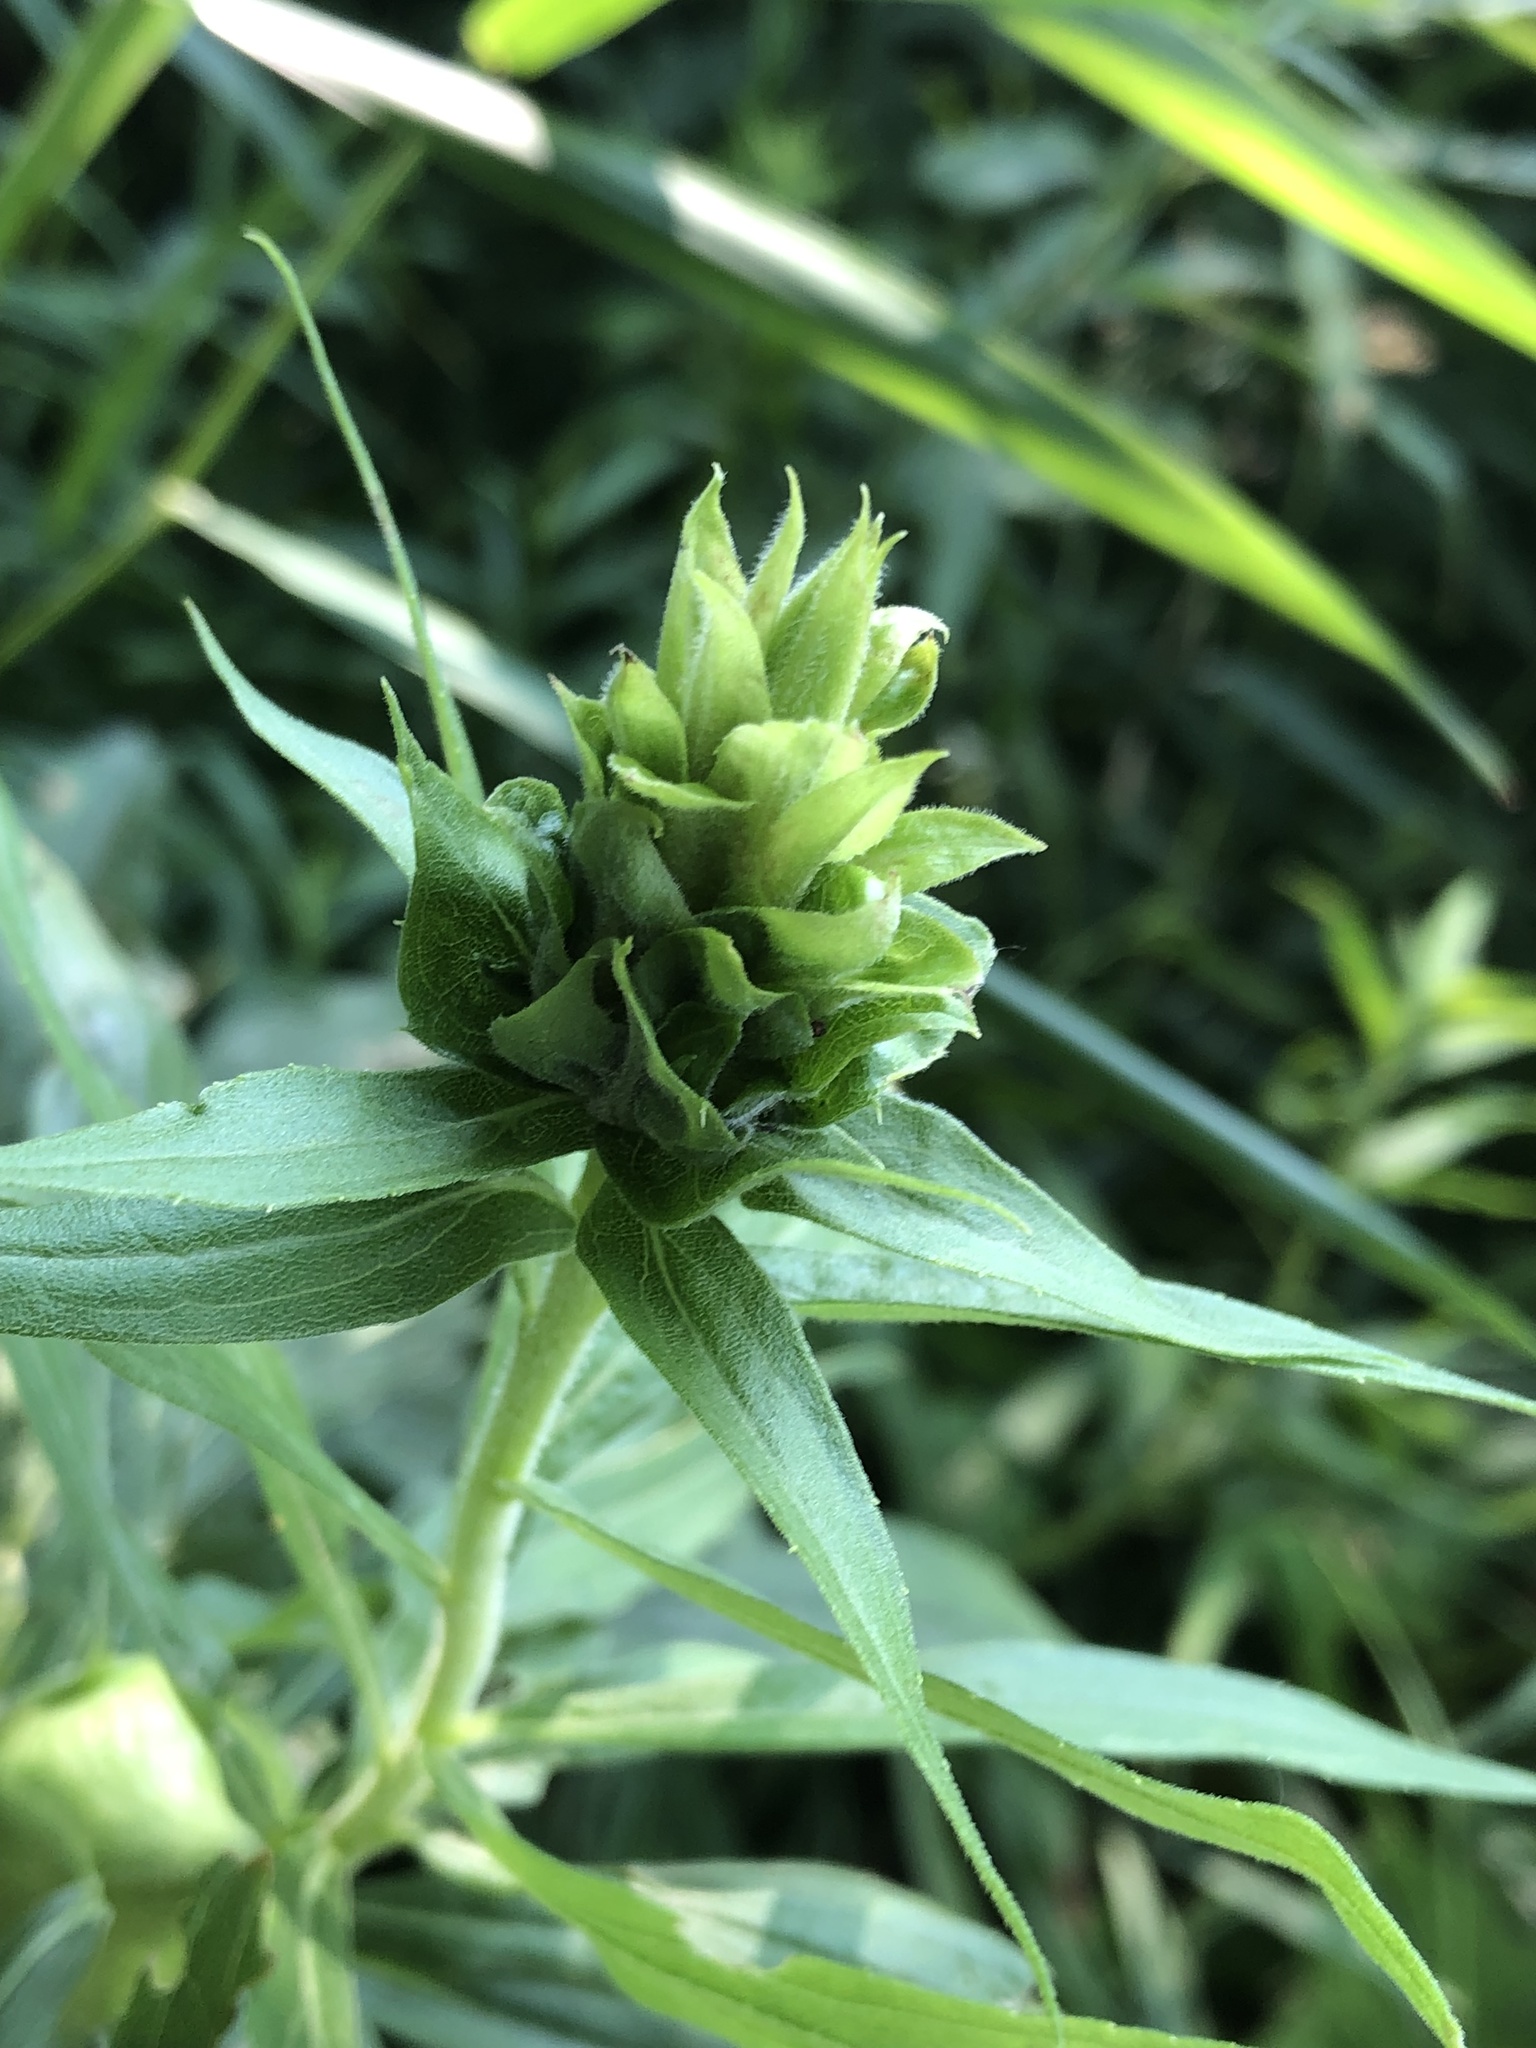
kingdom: Animalia
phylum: Arthropoda
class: Insecta
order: Diptera
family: Cecidomyiidae
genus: Rhopalomyia
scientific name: Rhopalomyia solidaginis
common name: Goldenrod bunch gall midge
